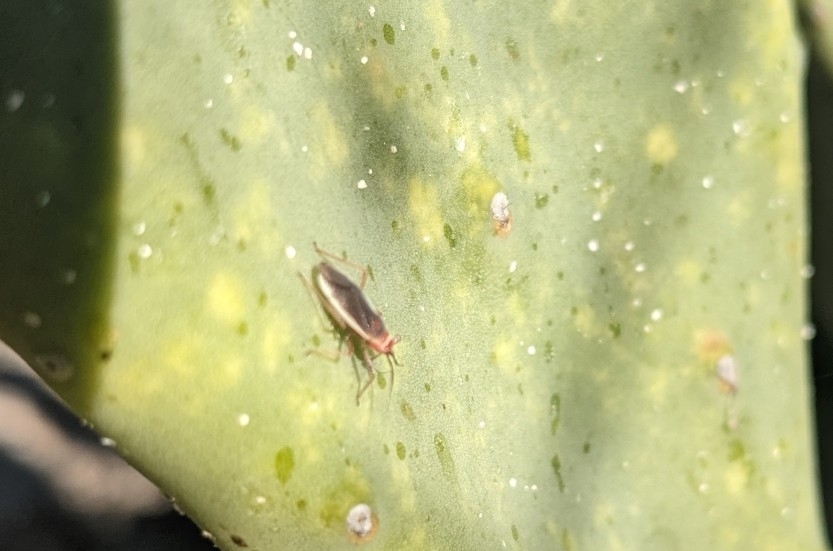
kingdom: Animalia
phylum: Arthropoda
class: Insecta
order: Hemiptera
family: Miridae
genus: Hesperolabops
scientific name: Hesperolabops gelastops
